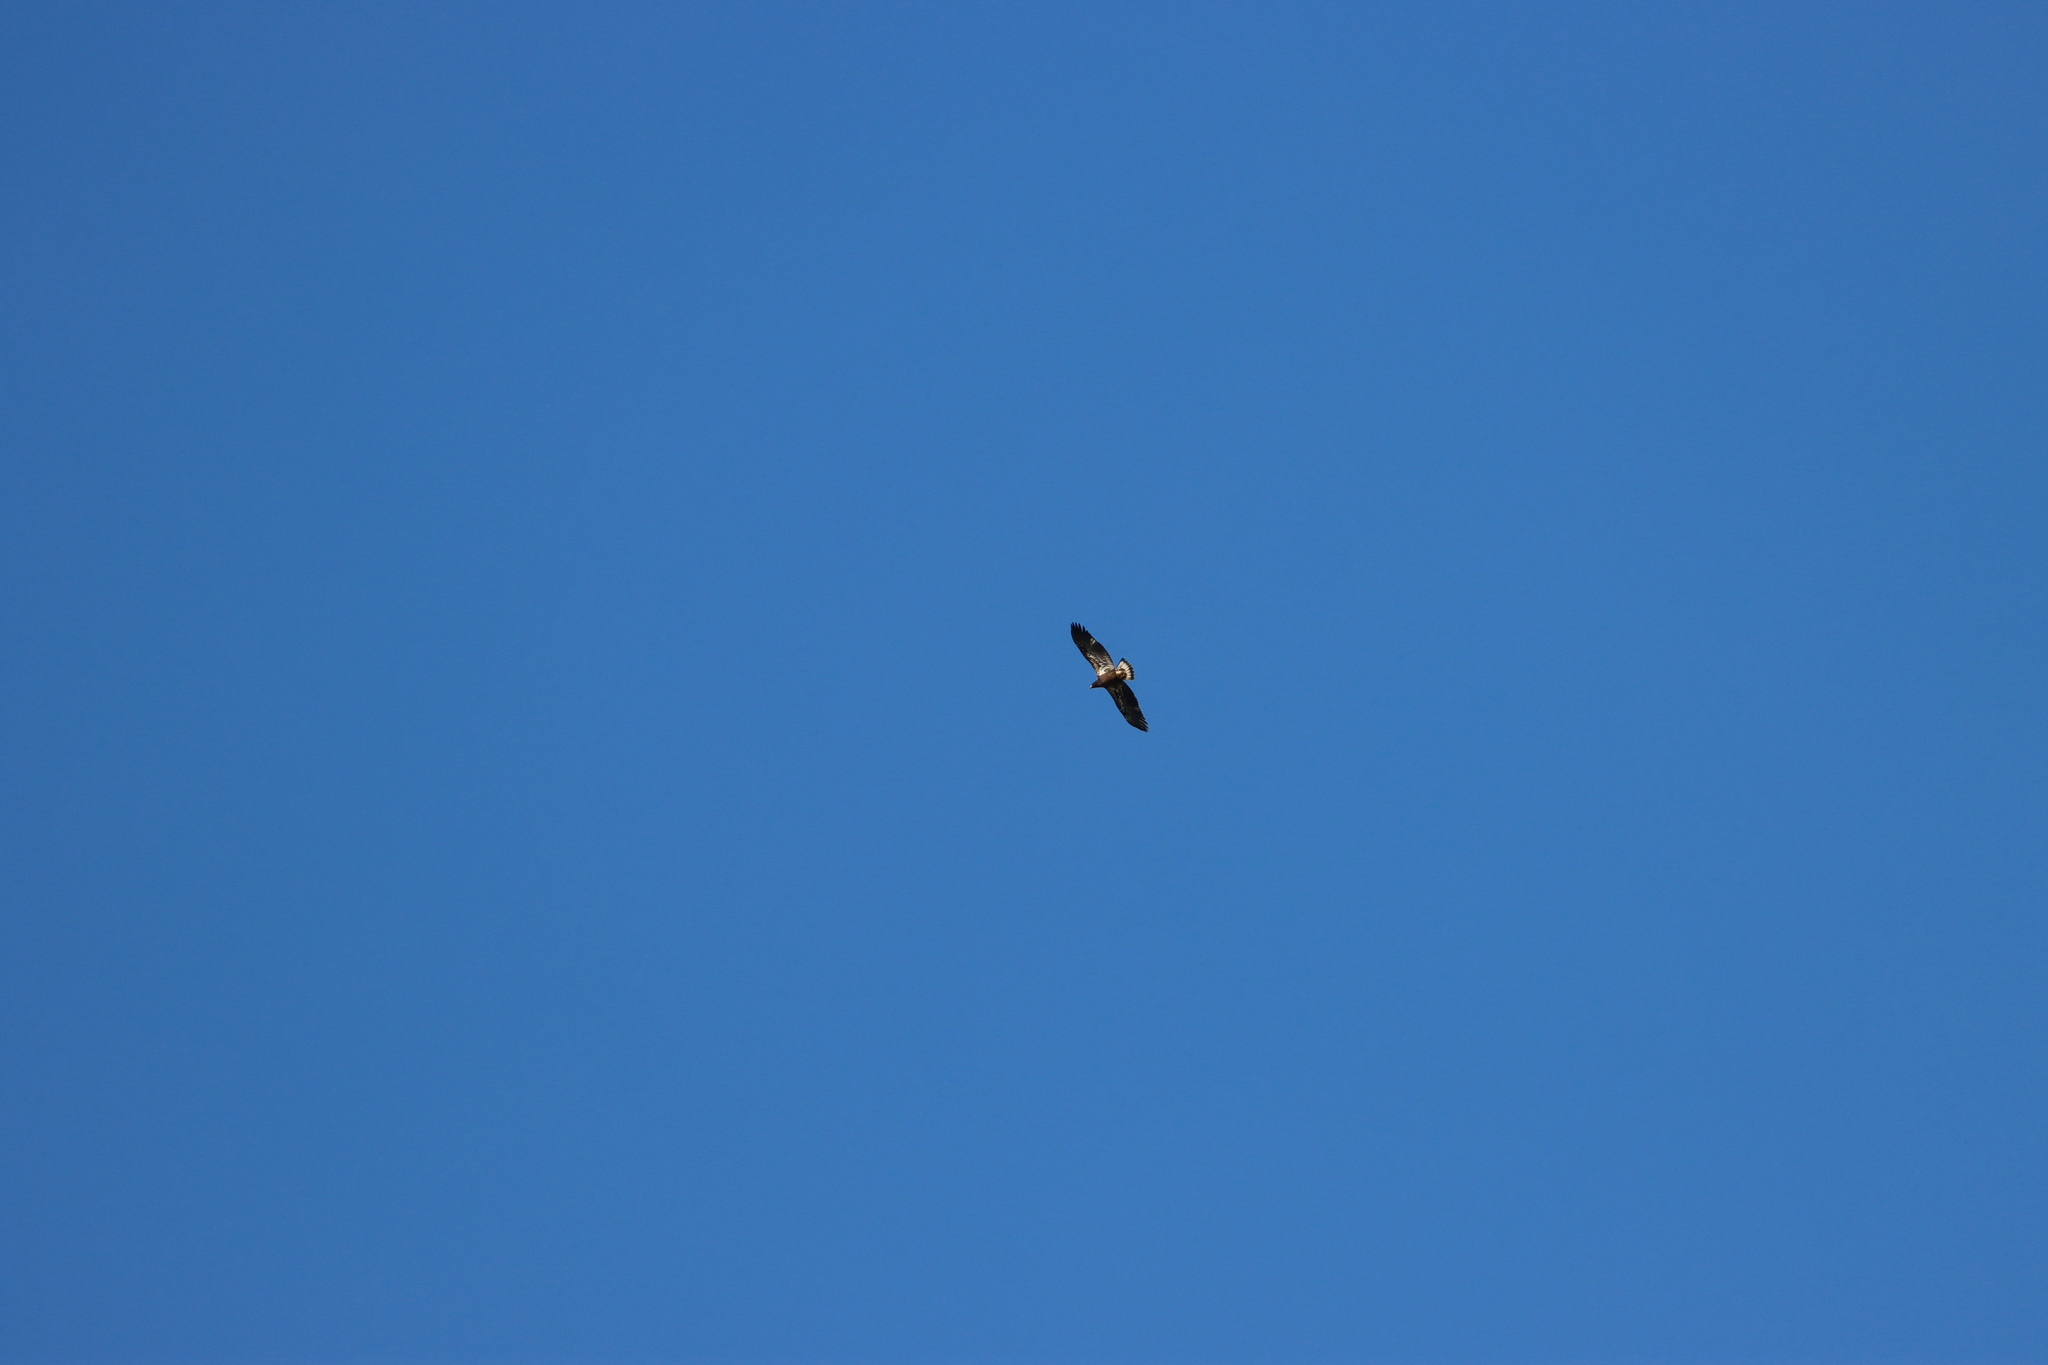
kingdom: Animalia
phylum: Chordata
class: Aves
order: Accipitriformes
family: Accipitridae
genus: Haliaeetus
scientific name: Haliaeetus leucocephalus
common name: Bald eagle
